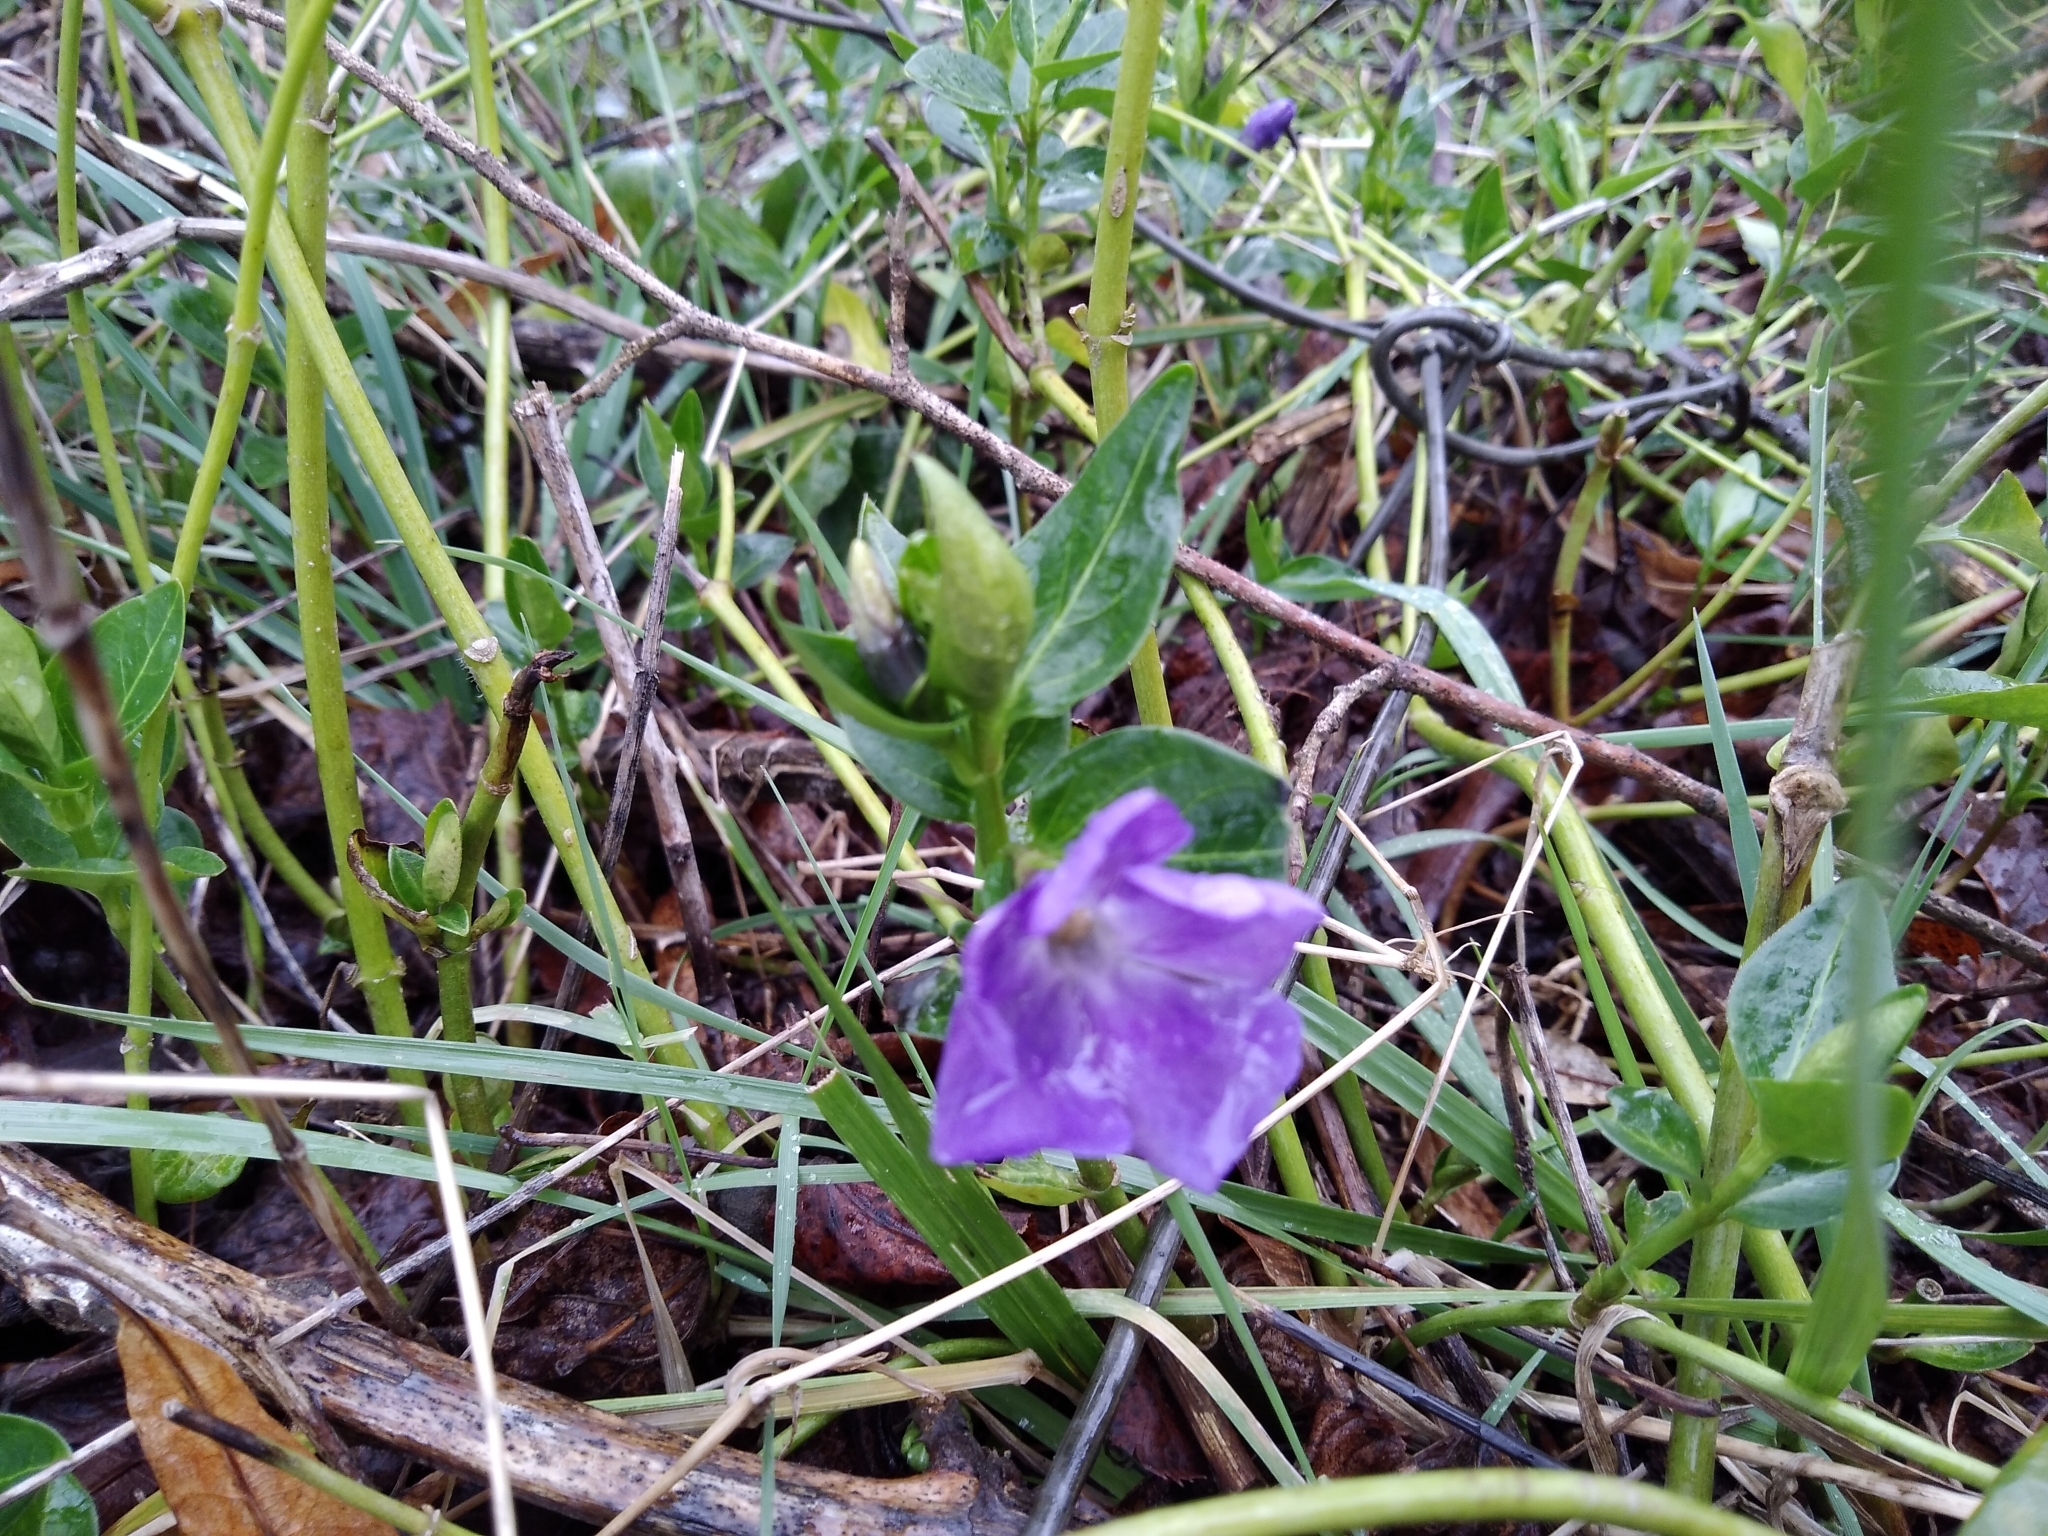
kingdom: Plantae
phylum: Tracheophyta
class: Magnoliopsida
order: Gentianales
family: Apocynaceae
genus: Vinca
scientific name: Vinca major
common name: Greater periwinkle
